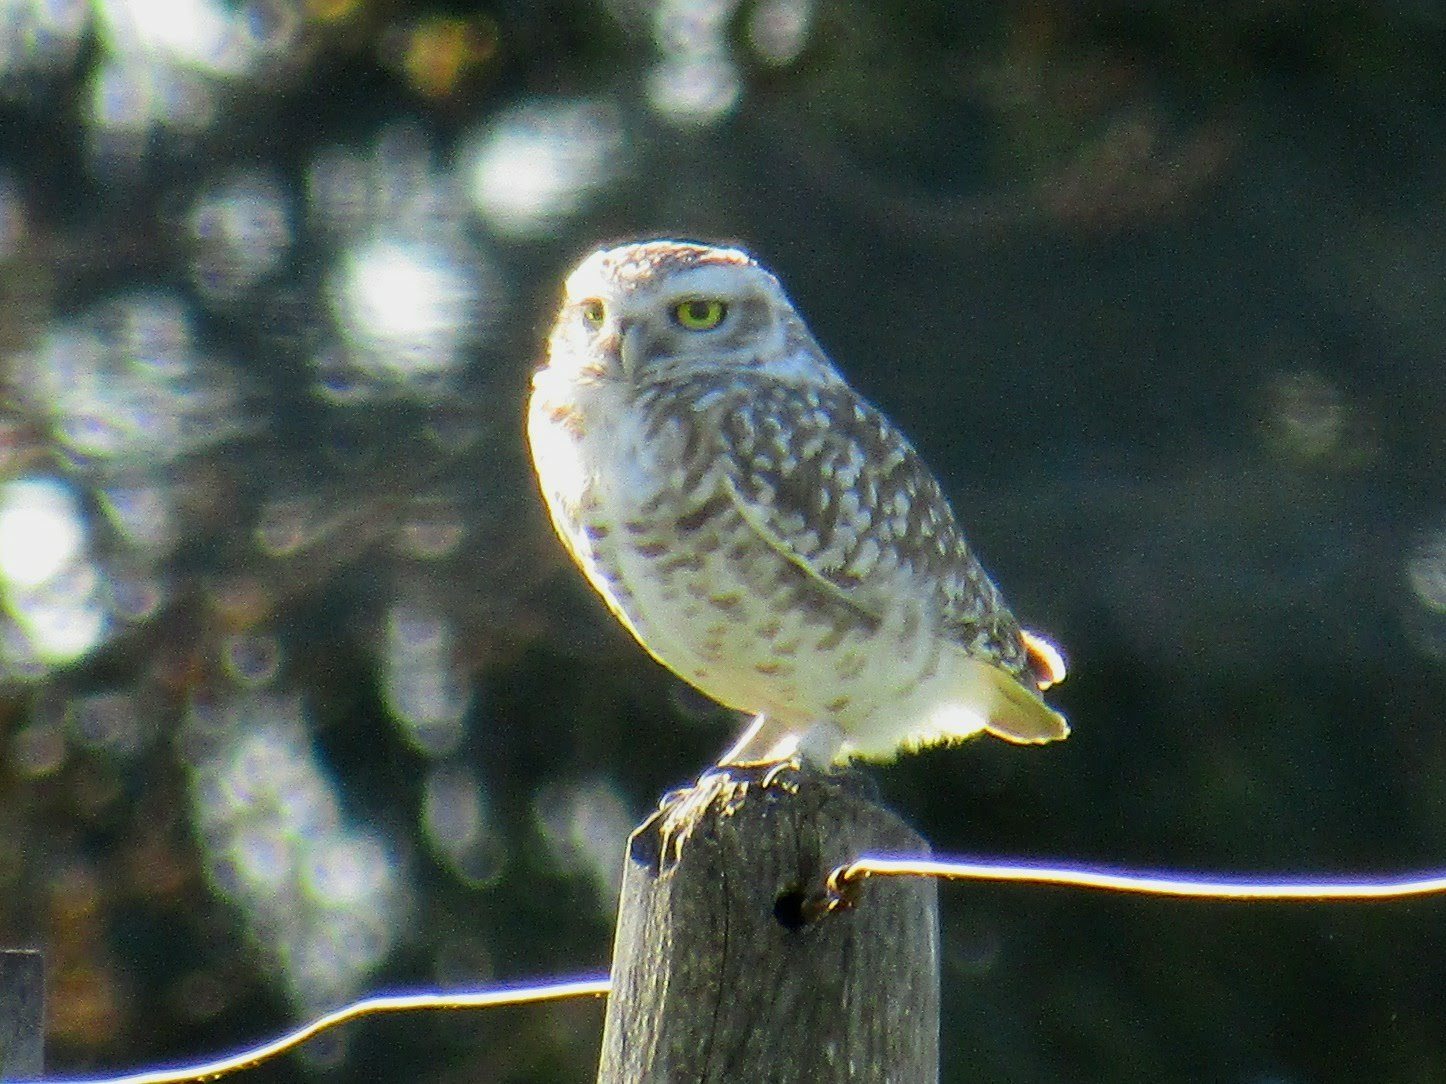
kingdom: Animalia
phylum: Chordata
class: Aves
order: Strigiformes
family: Strigidae
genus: Athene
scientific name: Athene cunicularia
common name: Burrowing owl
